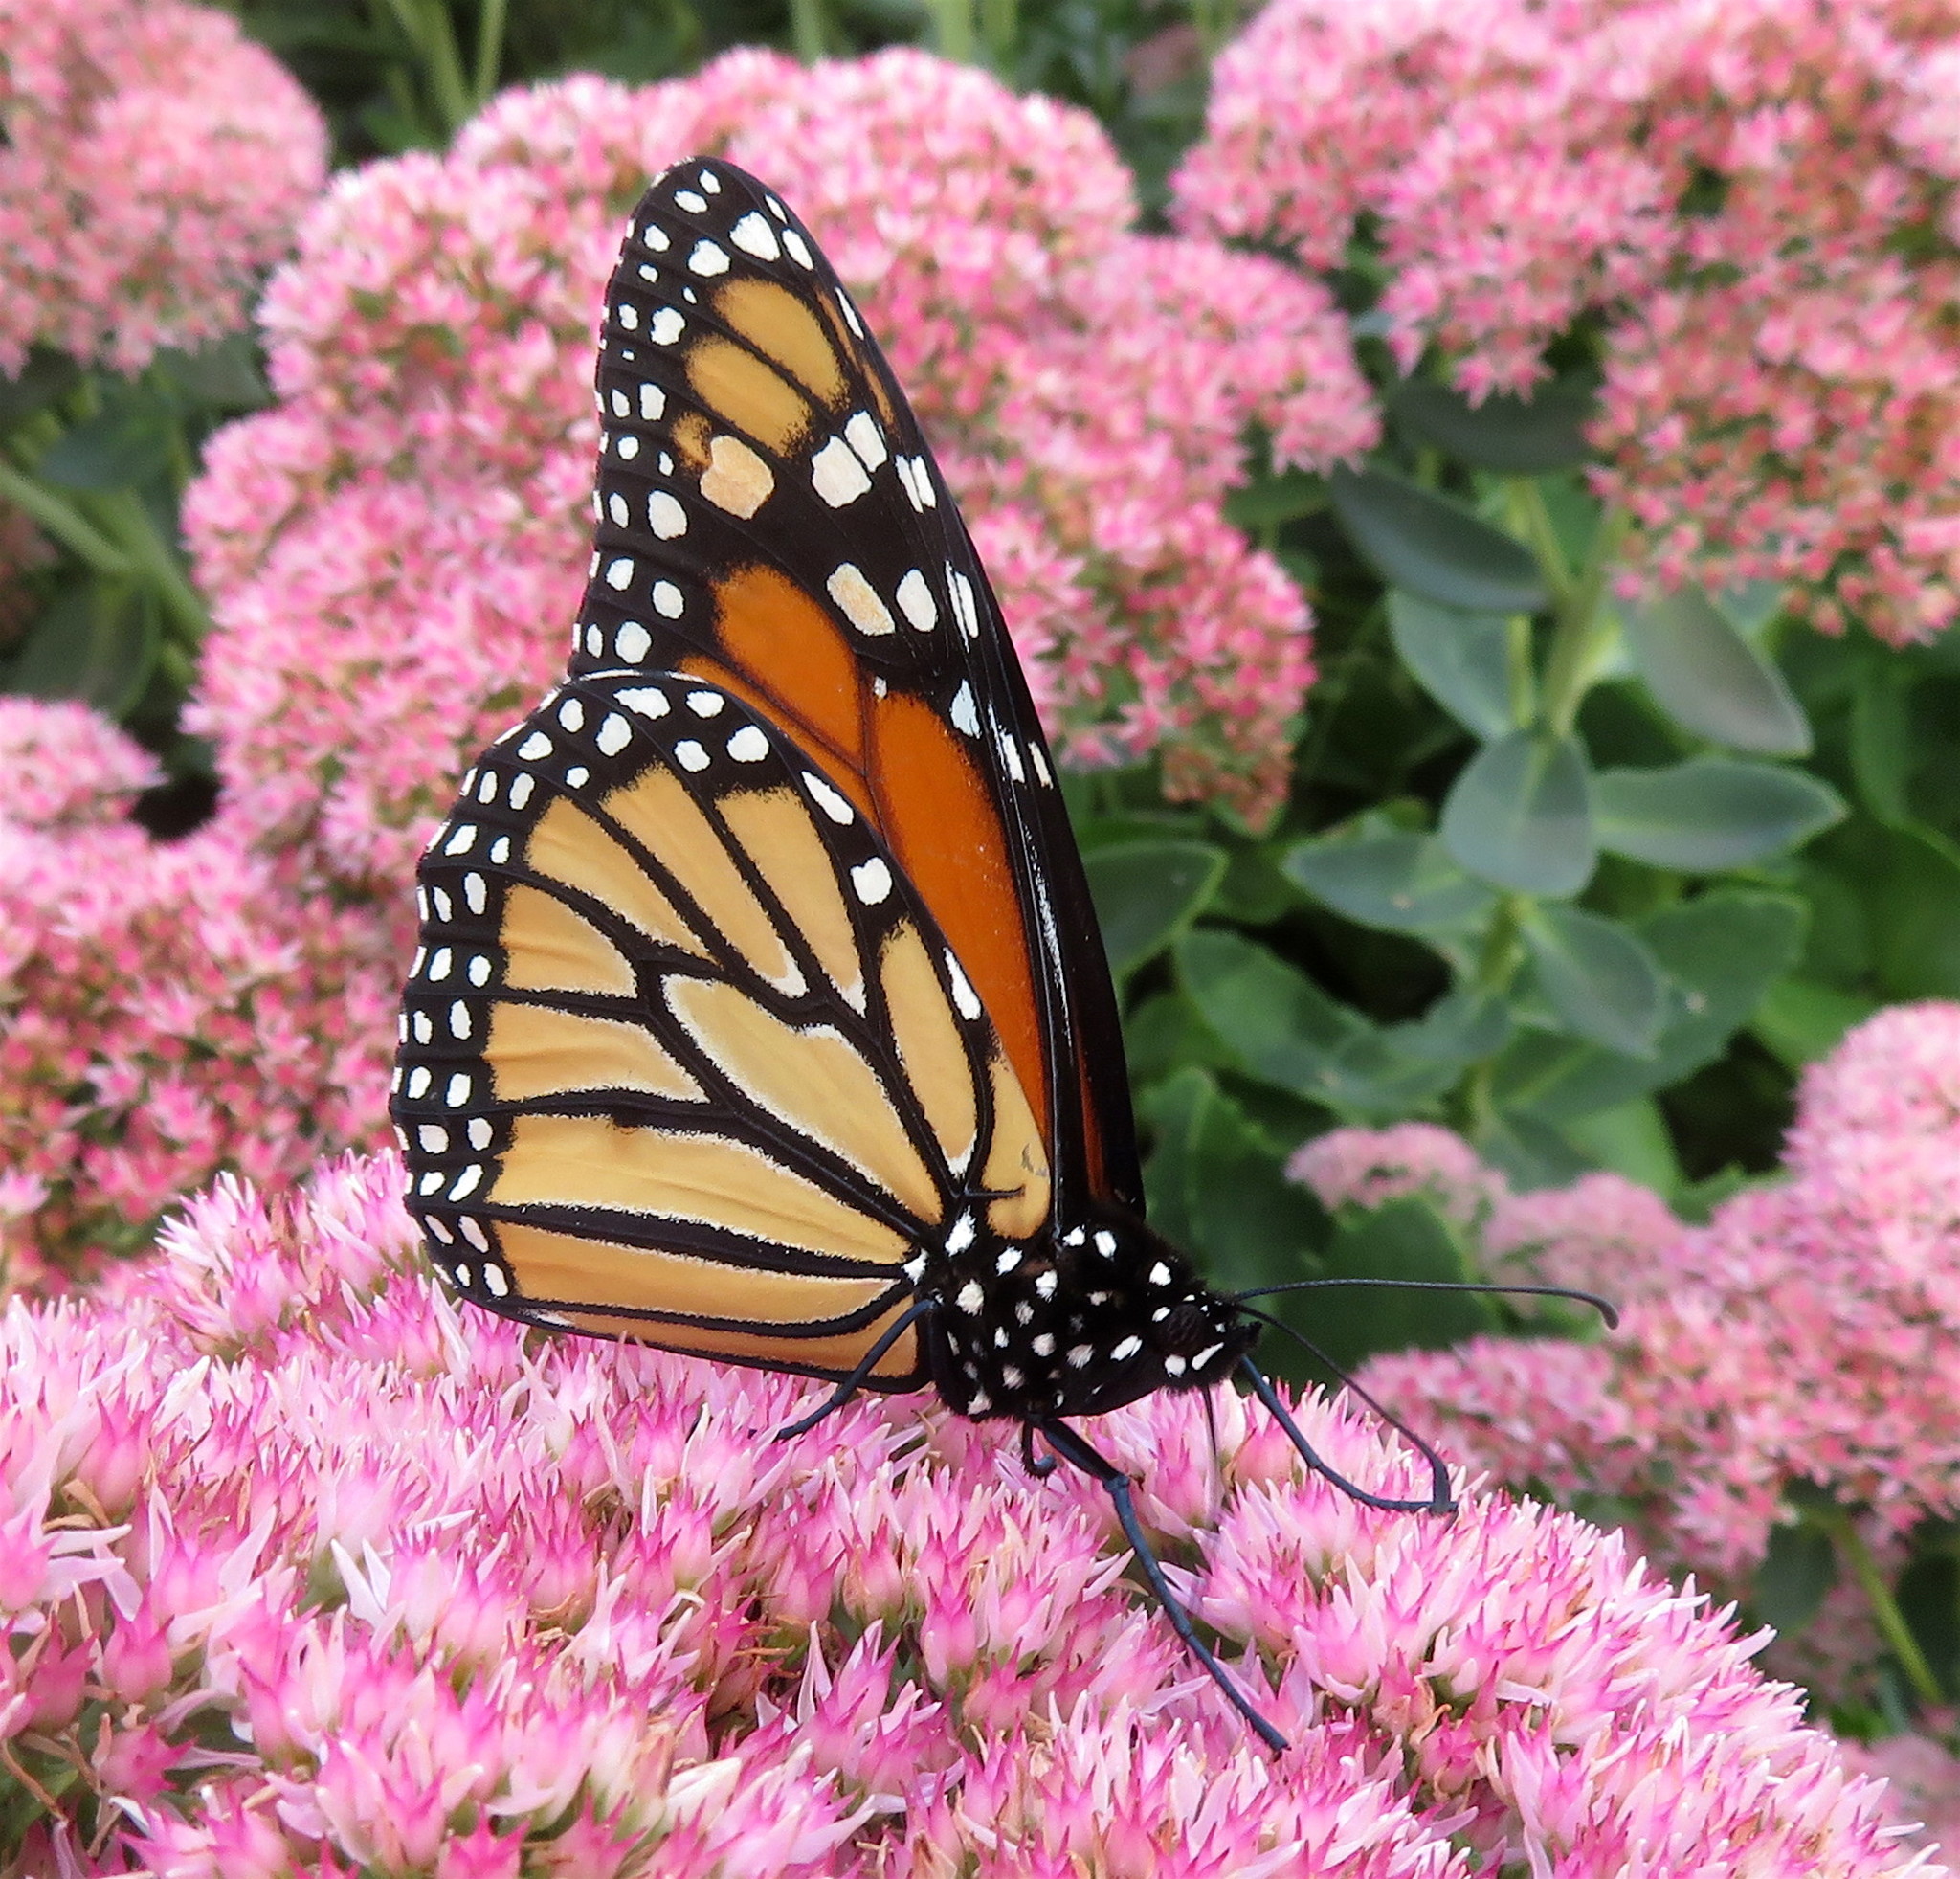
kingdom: Animalia
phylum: Arthropoda
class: Insecta
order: Lepidoptera
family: Nymphalidae
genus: Danaus
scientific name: Danaus plexippus
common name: Monarch
